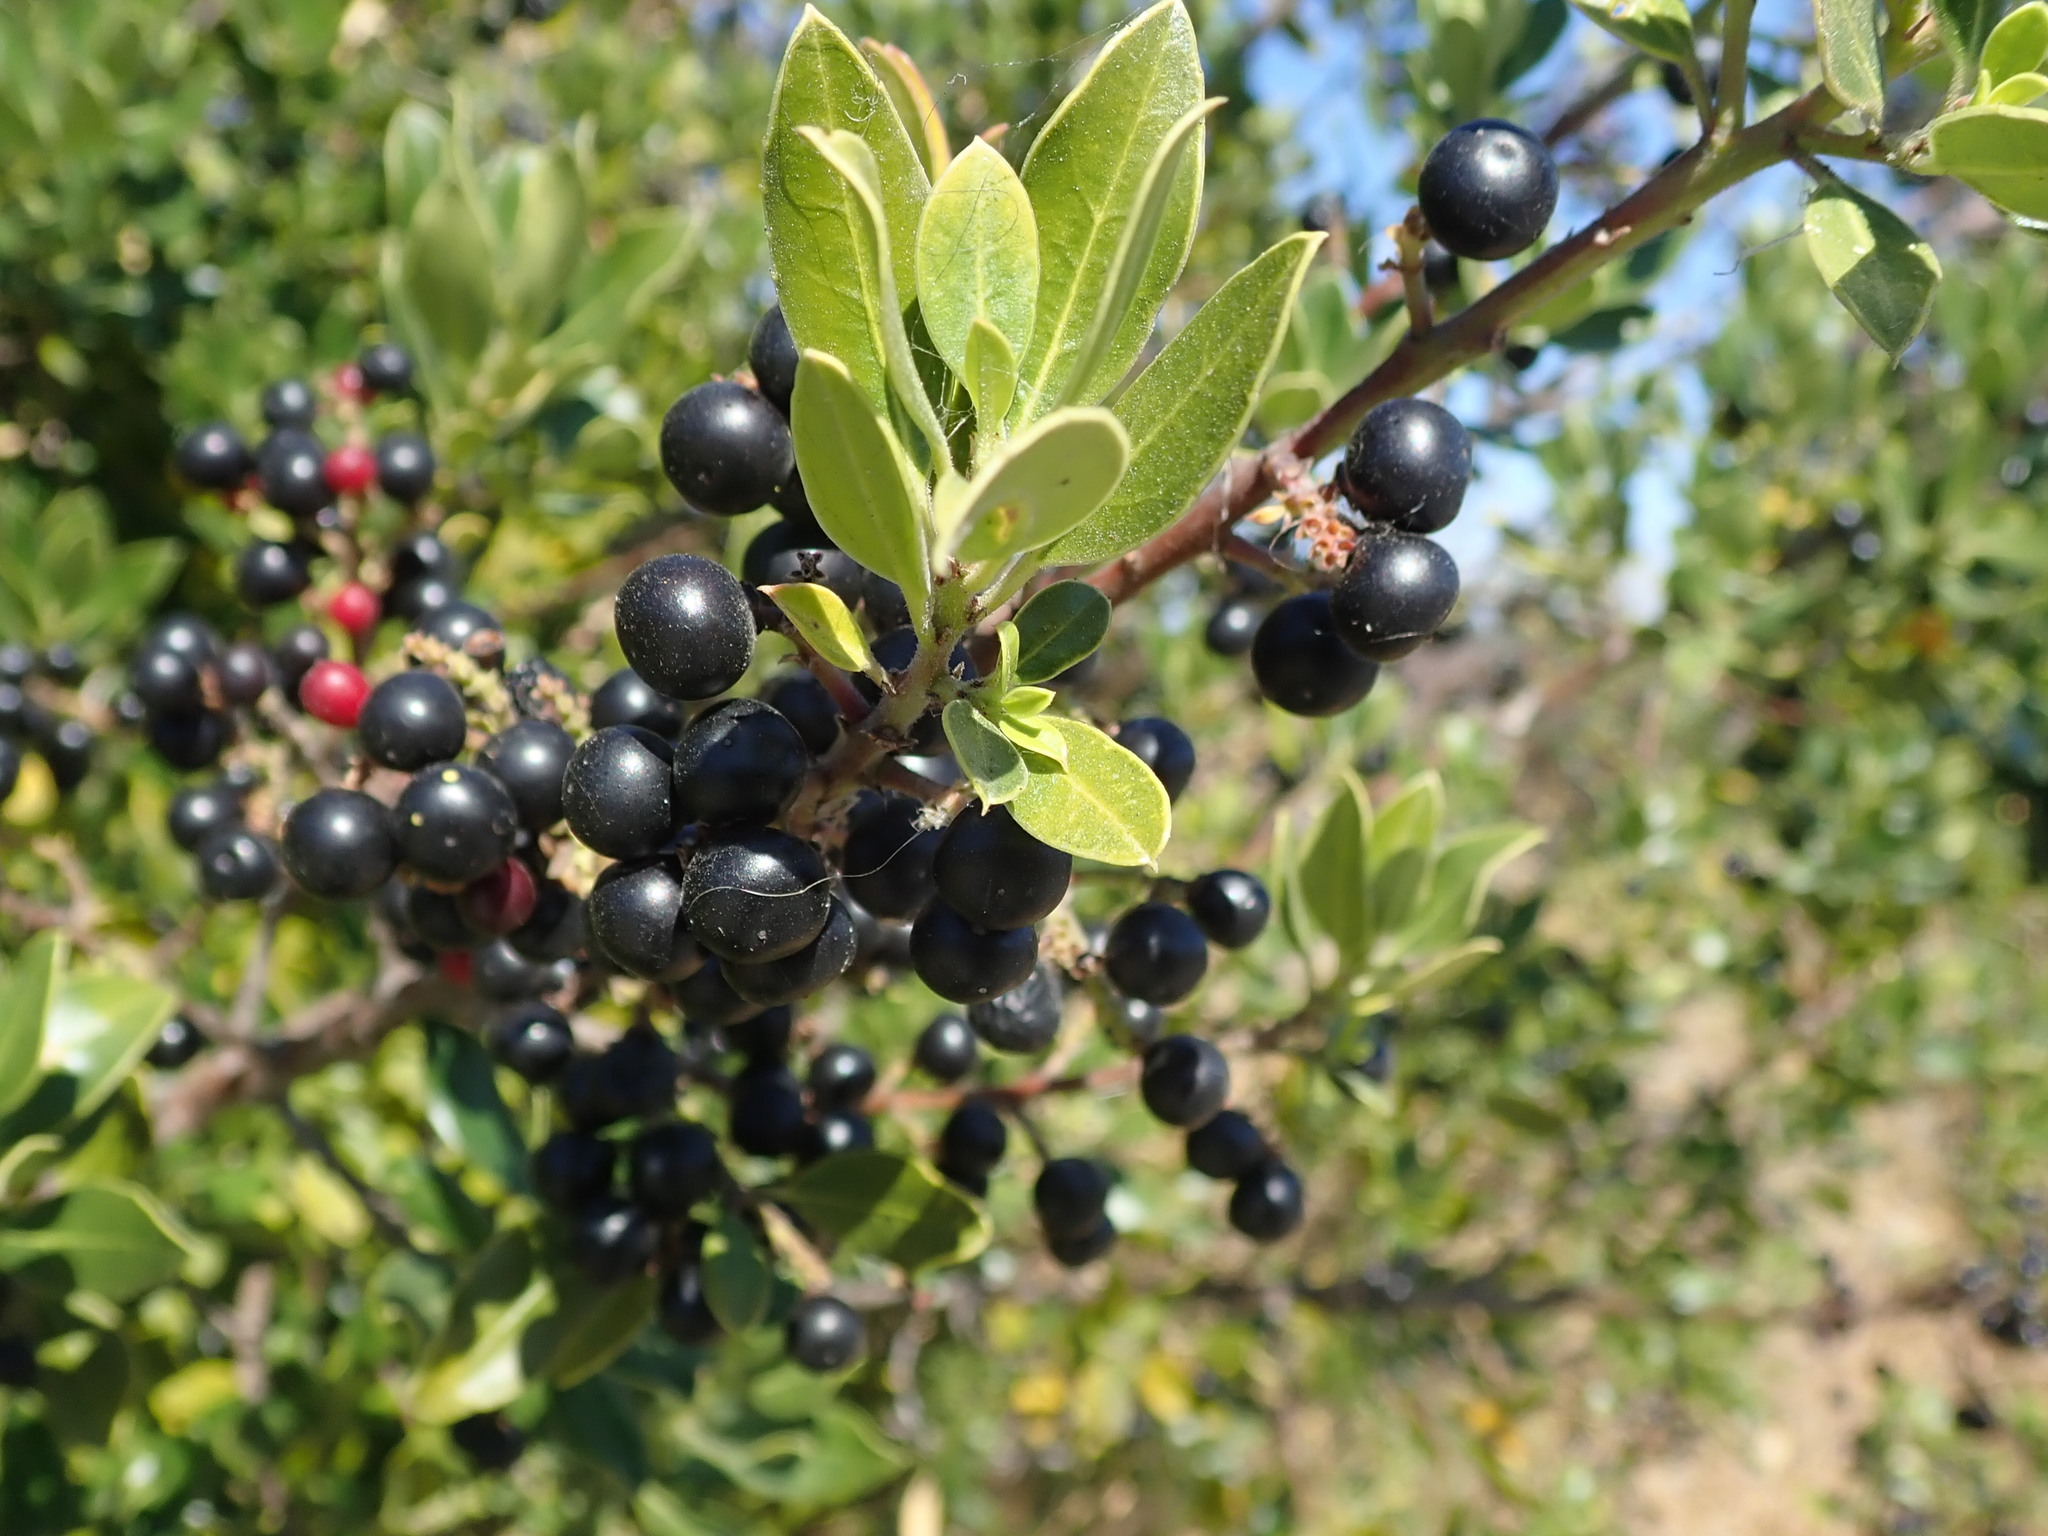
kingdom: Plantae
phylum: Tracheophyta
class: Magnoliopsida
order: Rosales
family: Rhamnaceae
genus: Rhamnus
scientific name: Rhamnus alaternus
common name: Mediterranean buckthorn
